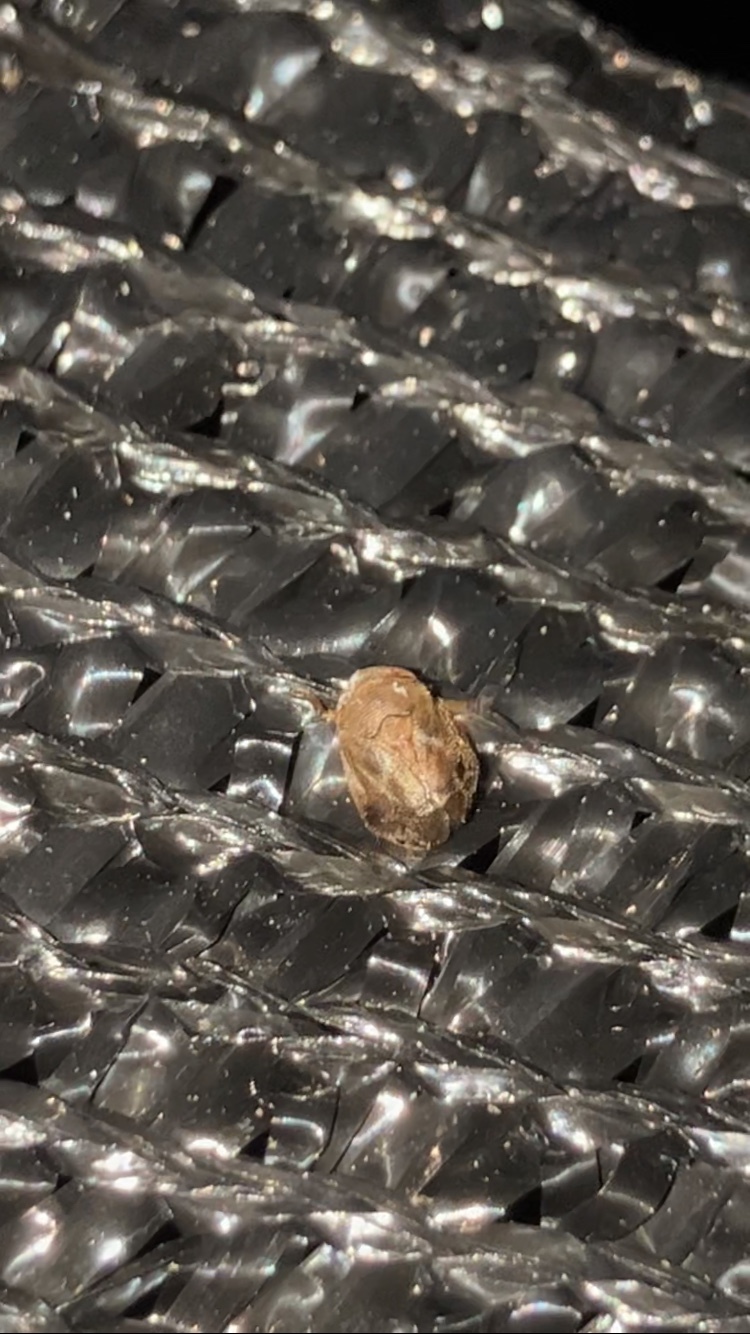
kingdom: Animalia
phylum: Arthropoda
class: Insecta
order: Hemiptera
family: Clastopteridae
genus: Clastoptera
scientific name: Clastoptera querci
